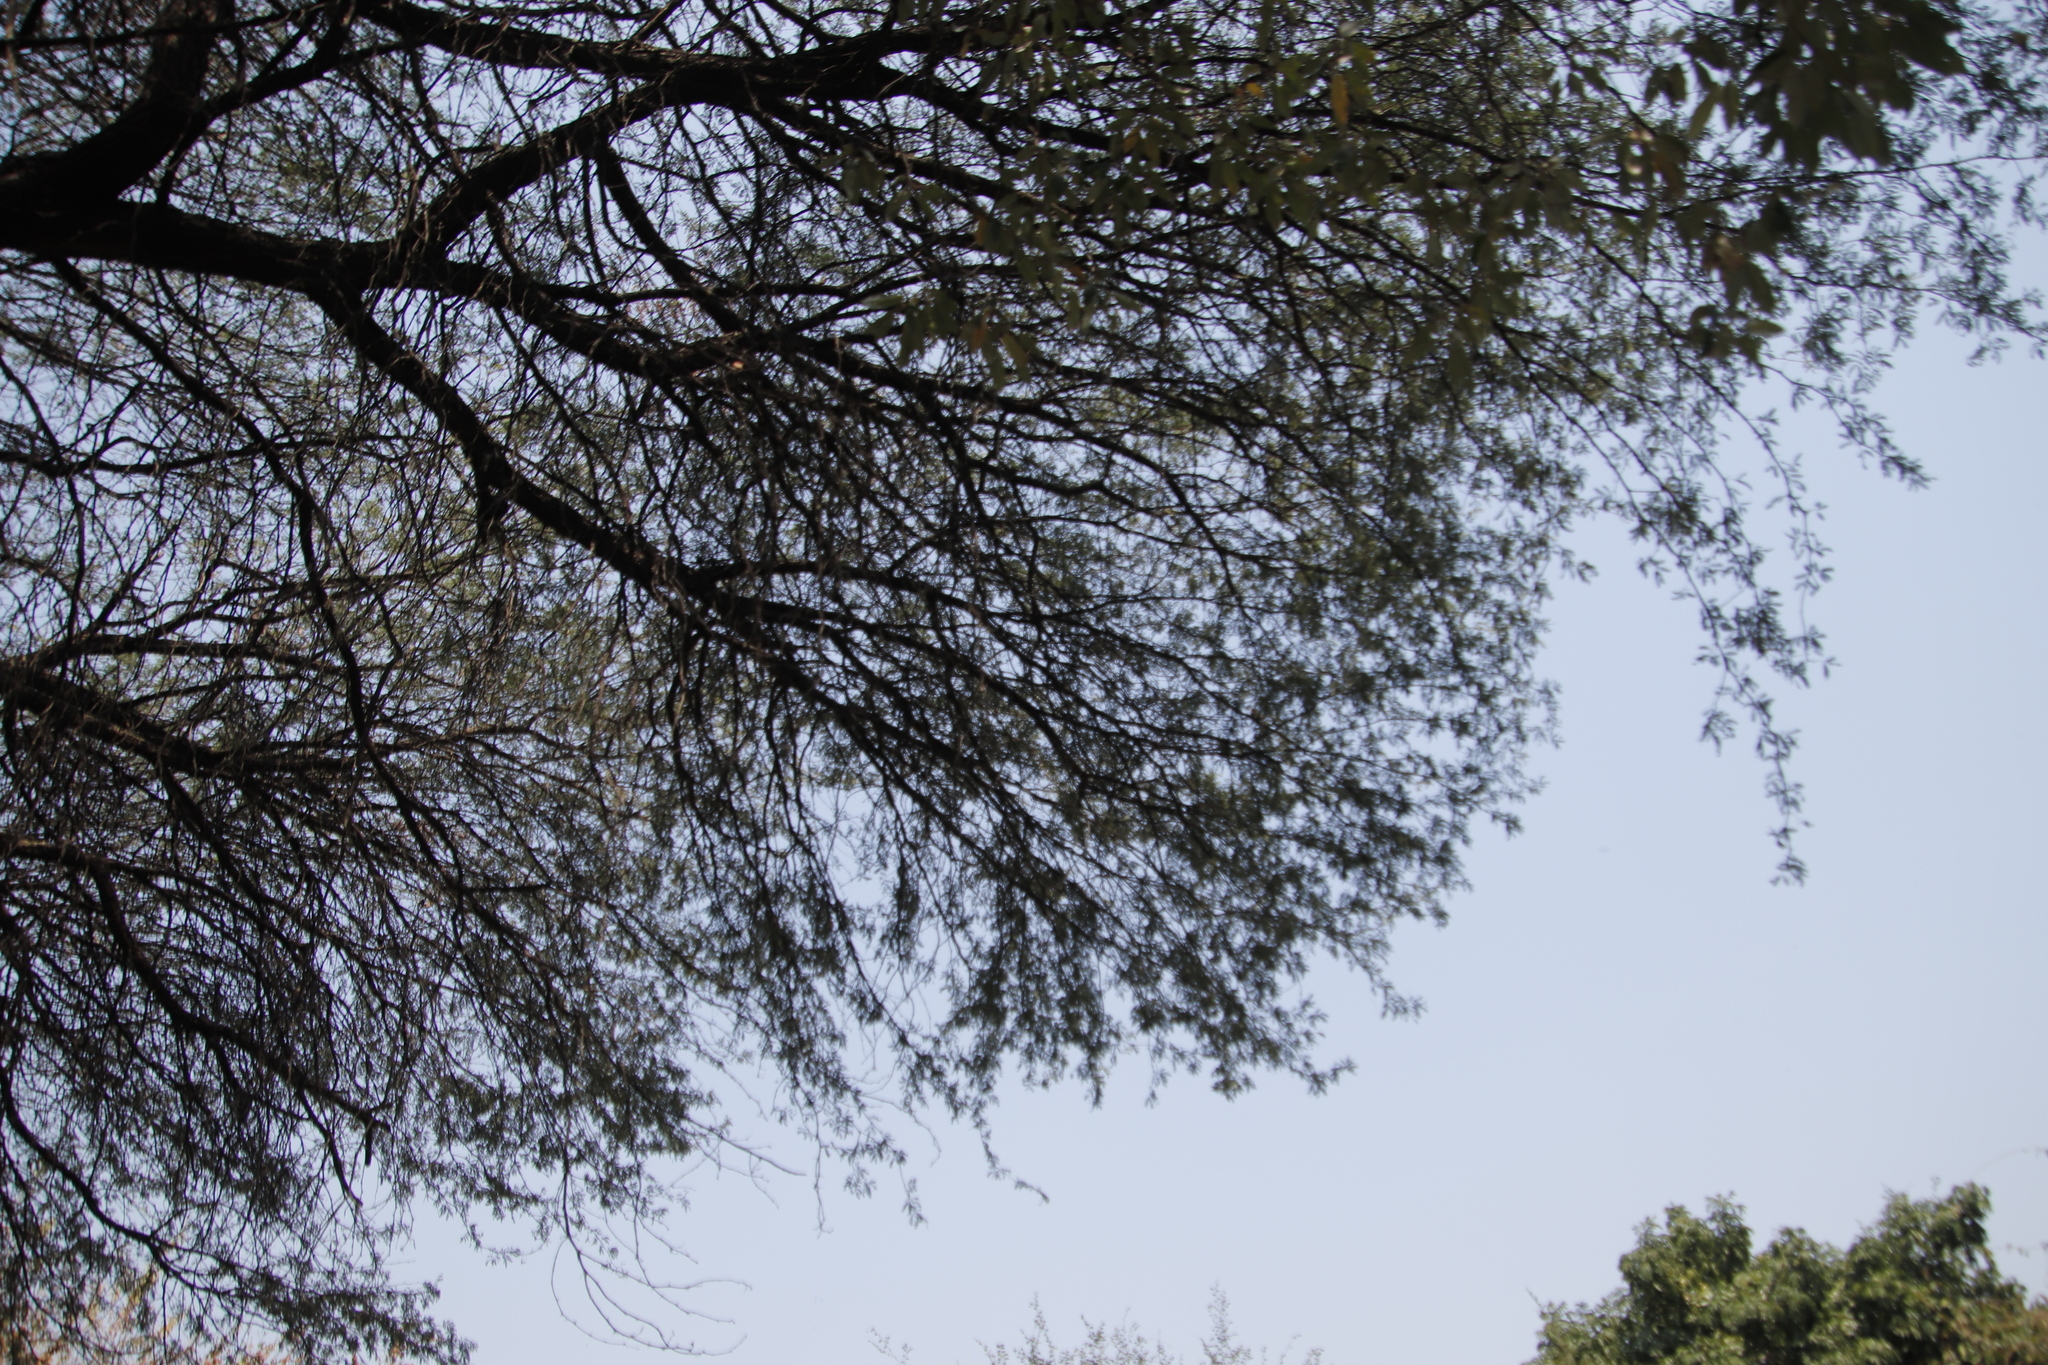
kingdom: Plantae
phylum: Tracheophyta
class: Magnoliopsida
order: Fabales
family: Fabaceae
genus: Vachellia
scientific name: Vachellia erioloba
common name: Camel thorn
